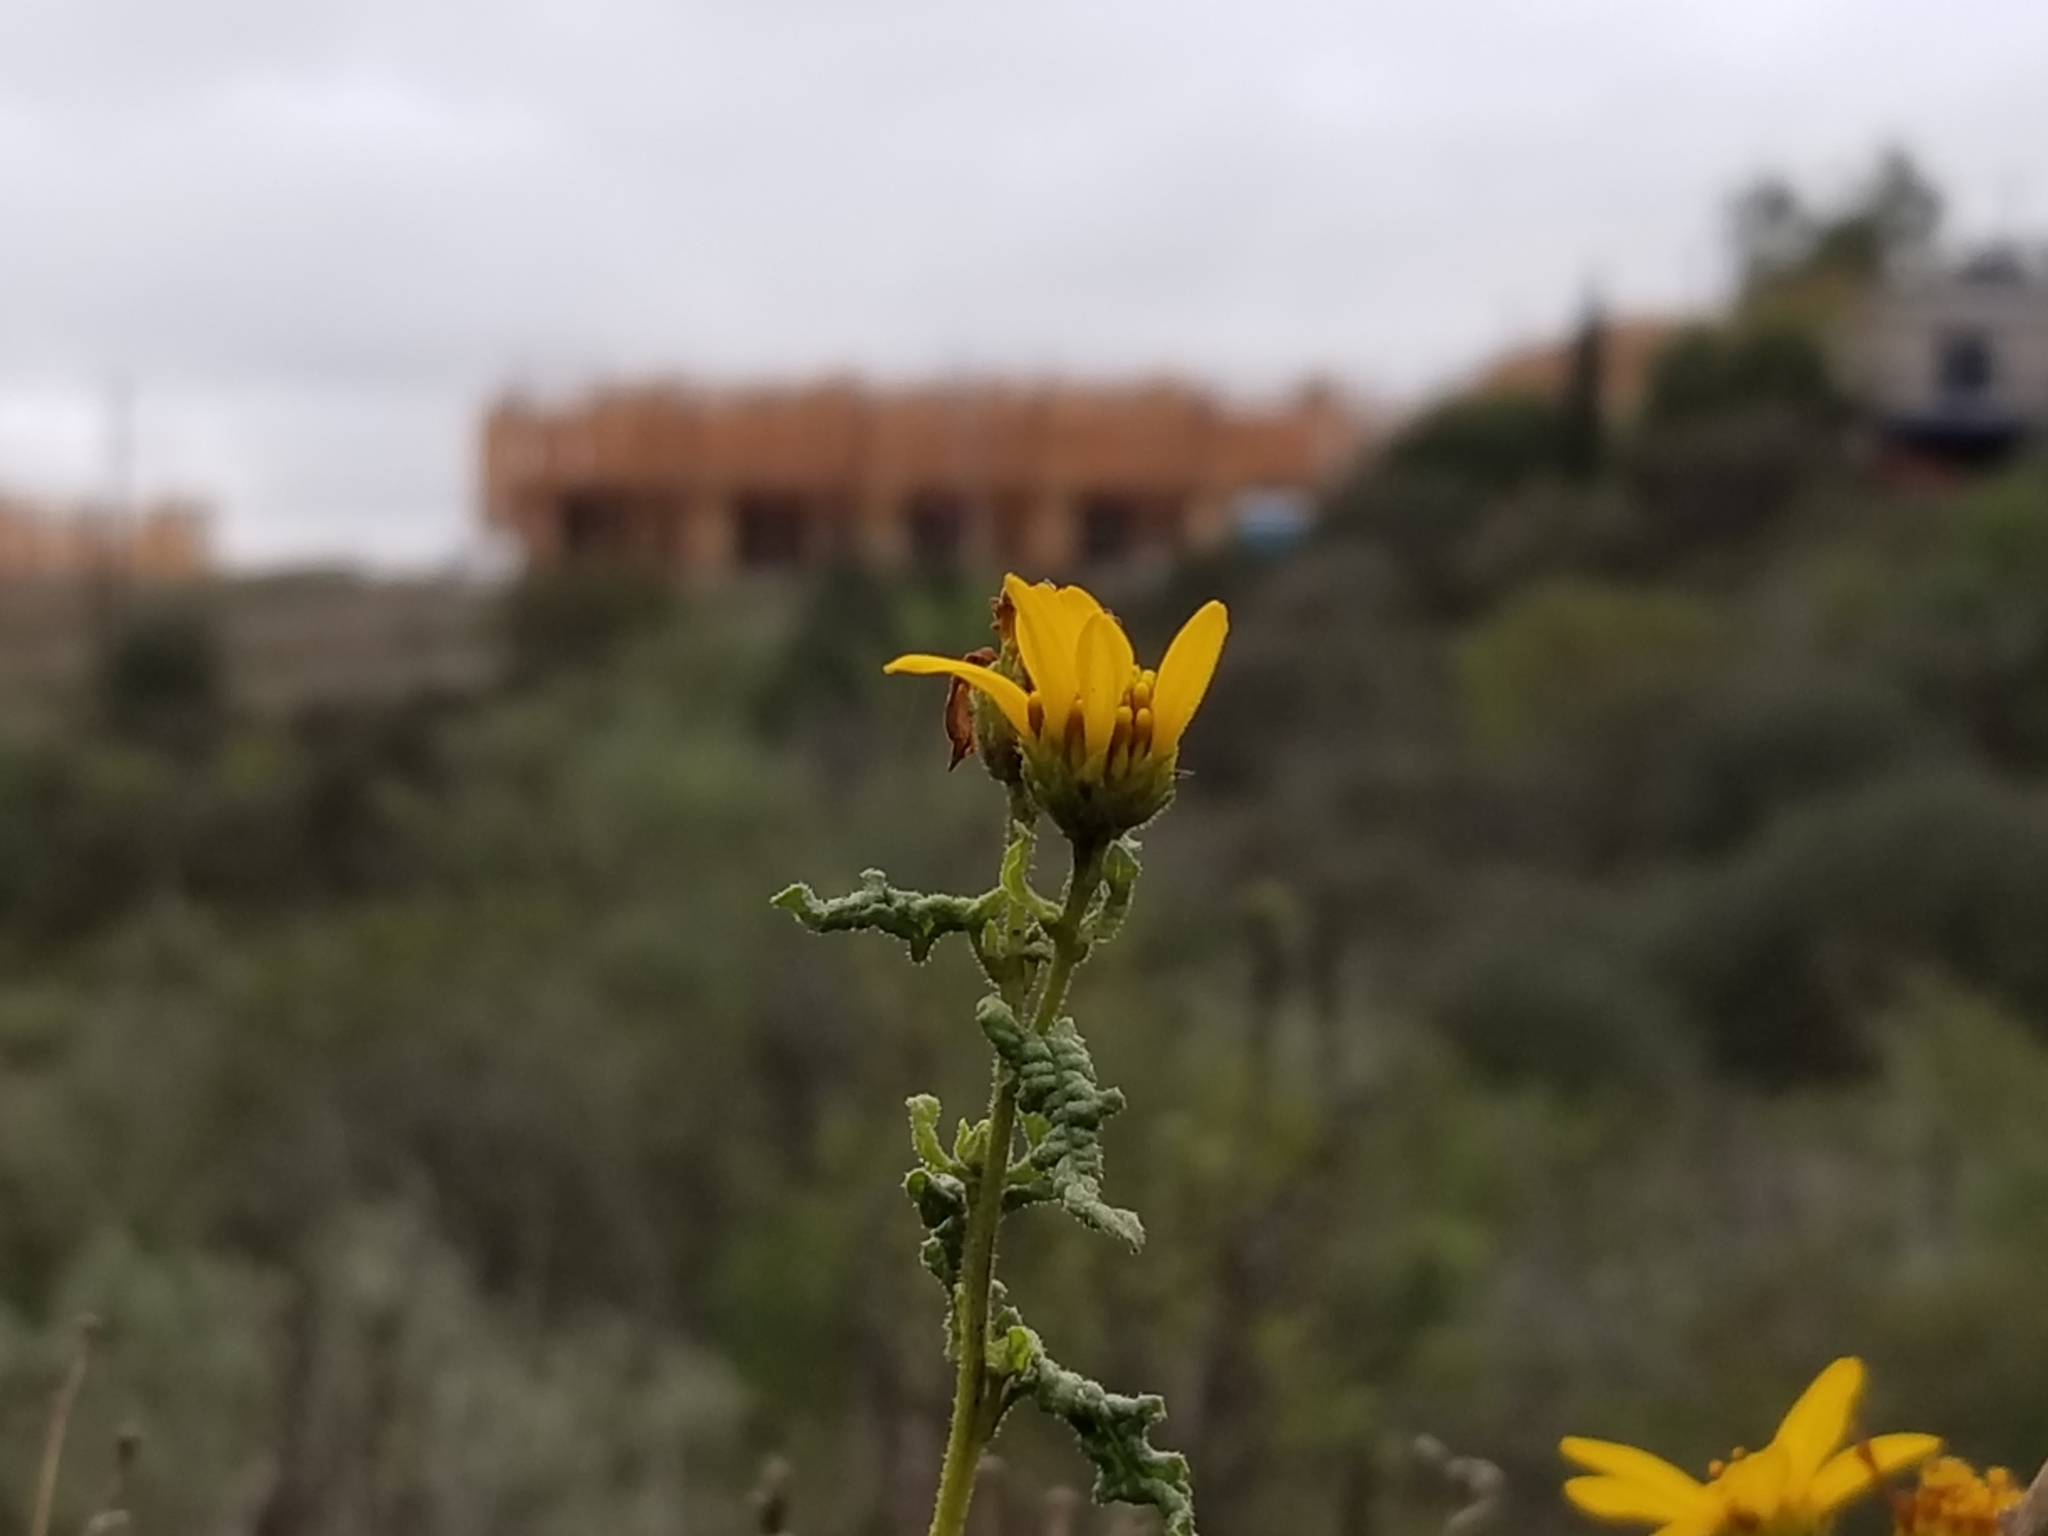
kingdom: Plantae
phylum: Tracheophyta
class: Magnoliopsida
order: Asterales
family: Asteraceae
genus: Bahiopsis
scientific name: Bahiopsis laciniata
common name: San diego county viguiera
